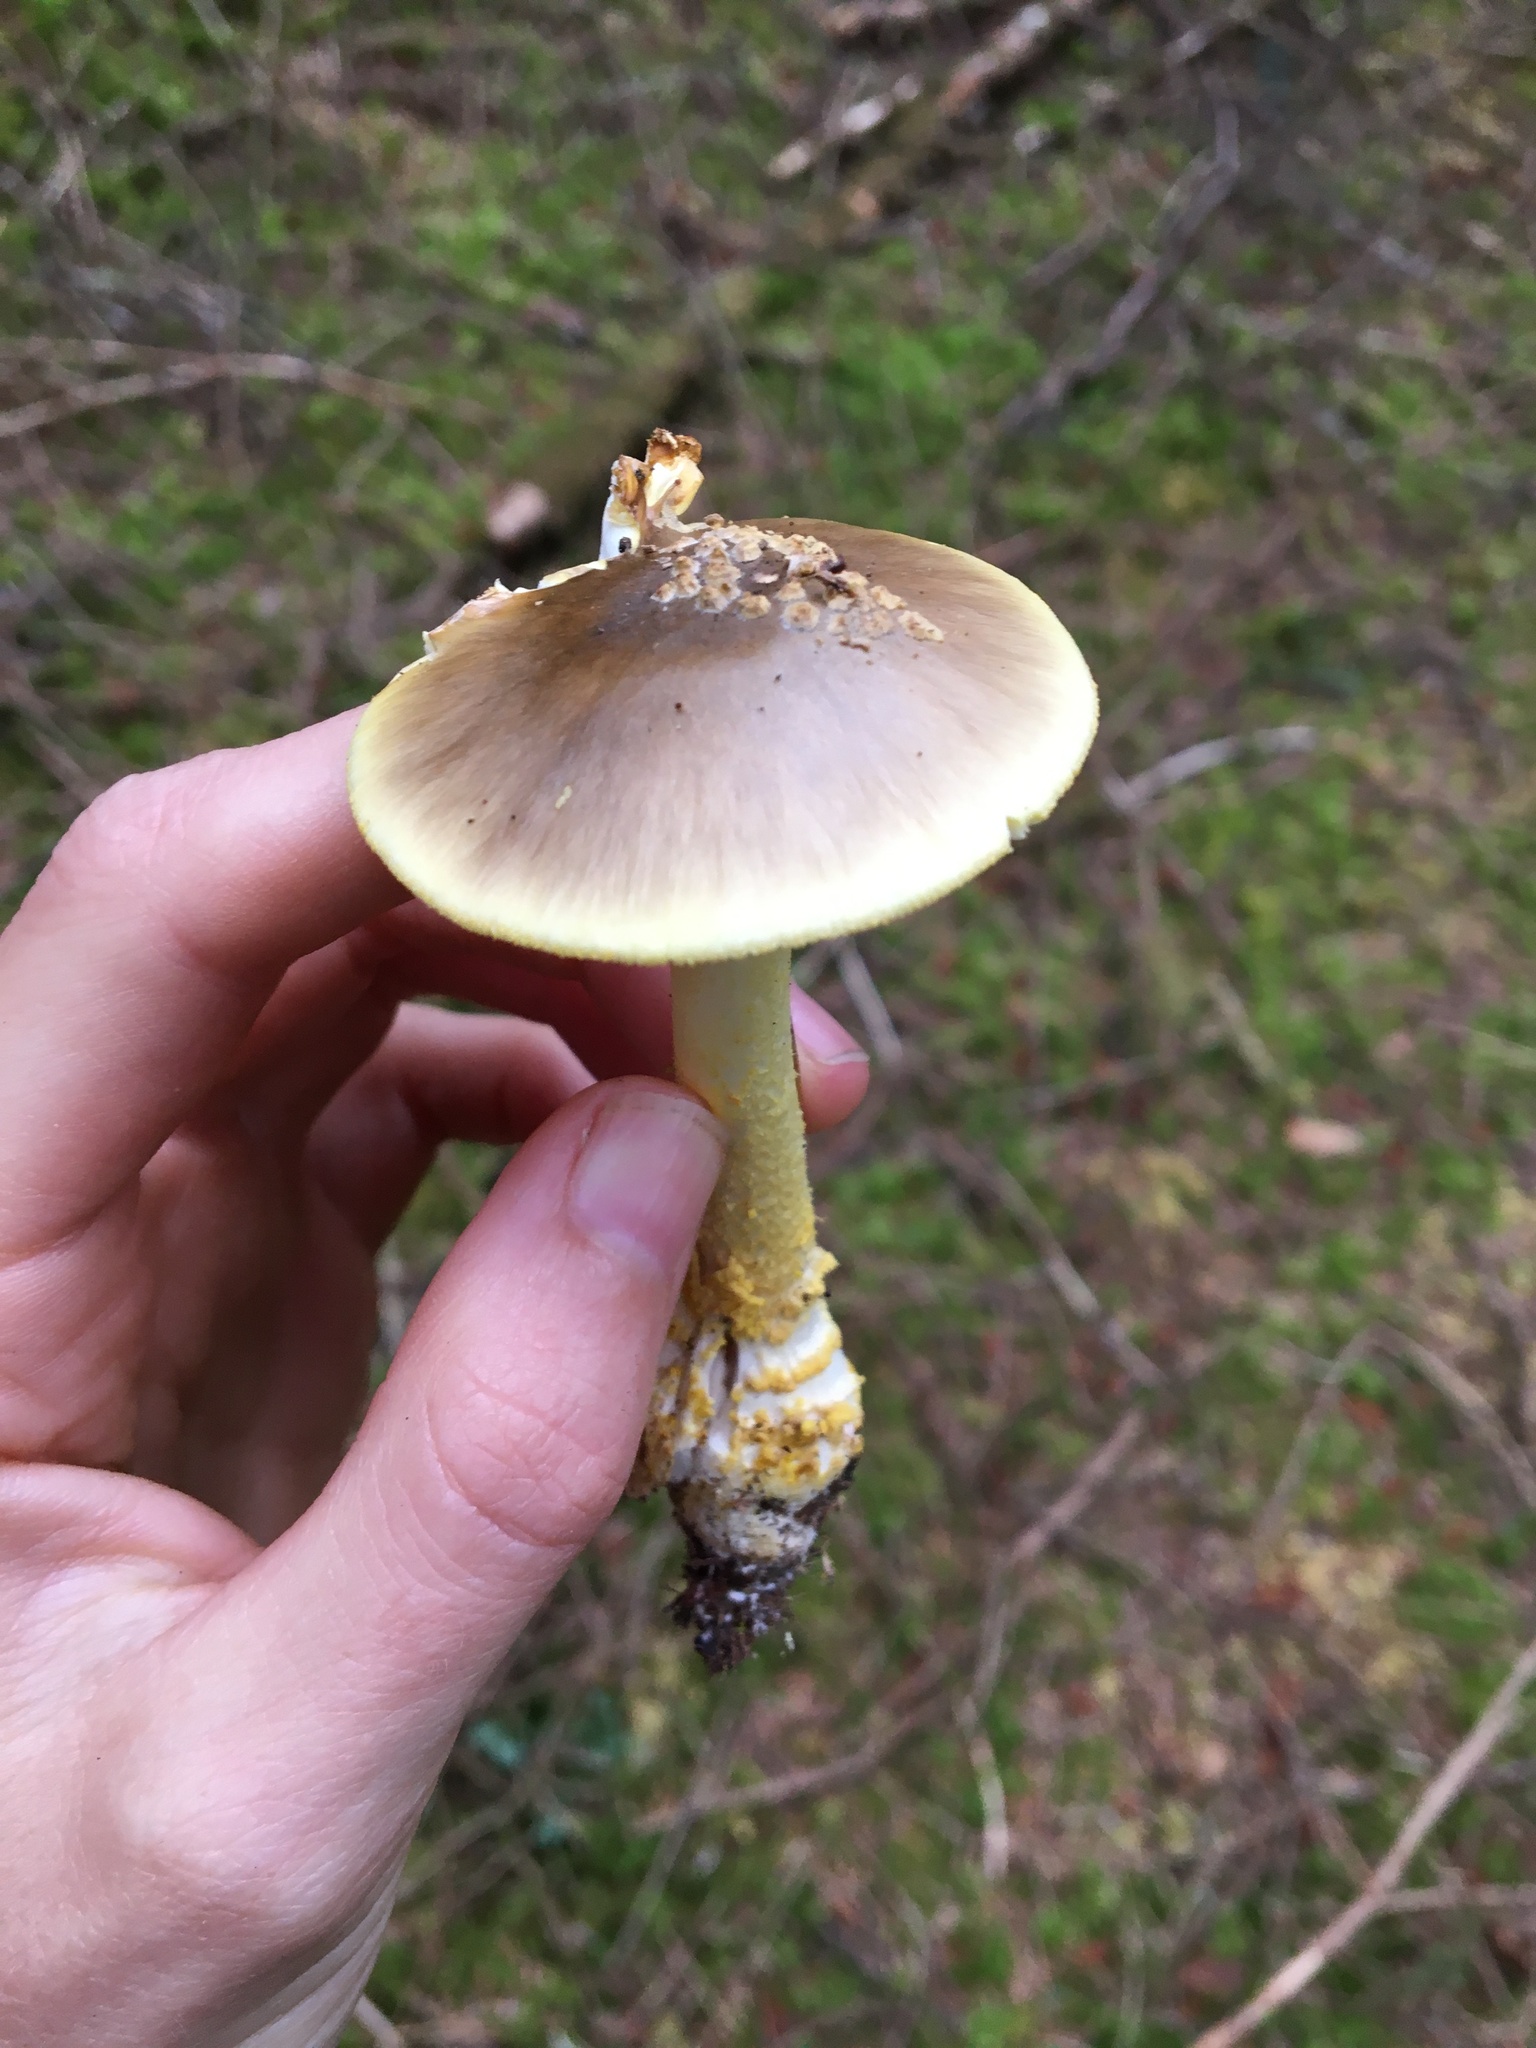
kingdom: Fungi
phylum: Basidiomycota
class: Agaricomycetes
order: Agaricales
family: Amanitaceae
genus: Amanita
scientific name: Amanita augusta
